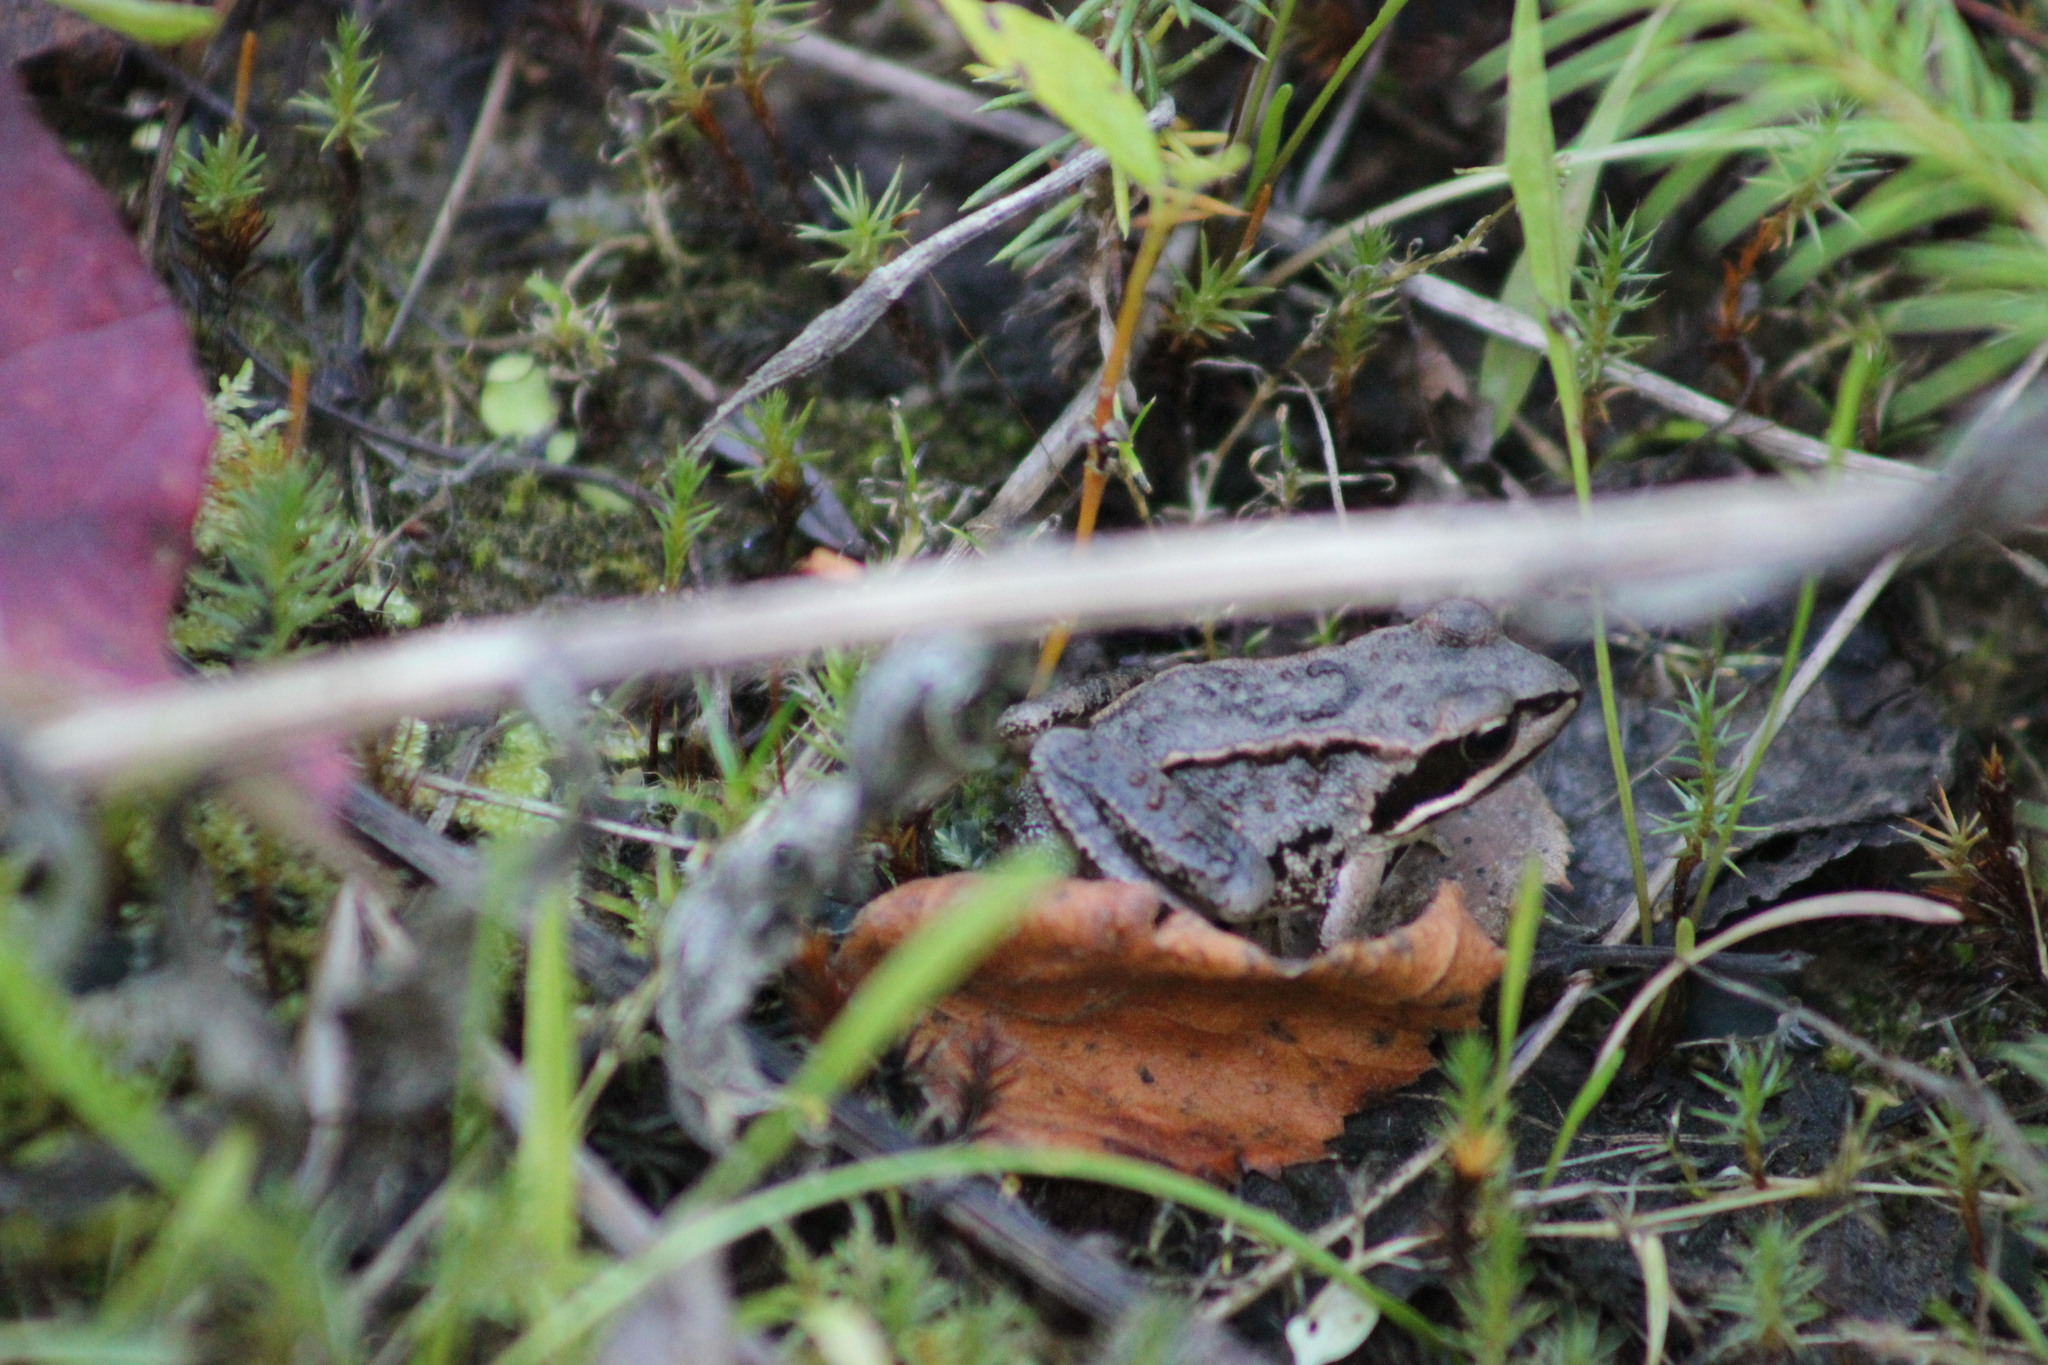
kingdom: Animalia
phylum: Chordata
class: Amphibia
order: Anura
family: Ranidae
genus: Rana
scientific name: Rana arvalis
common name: Moor frog
